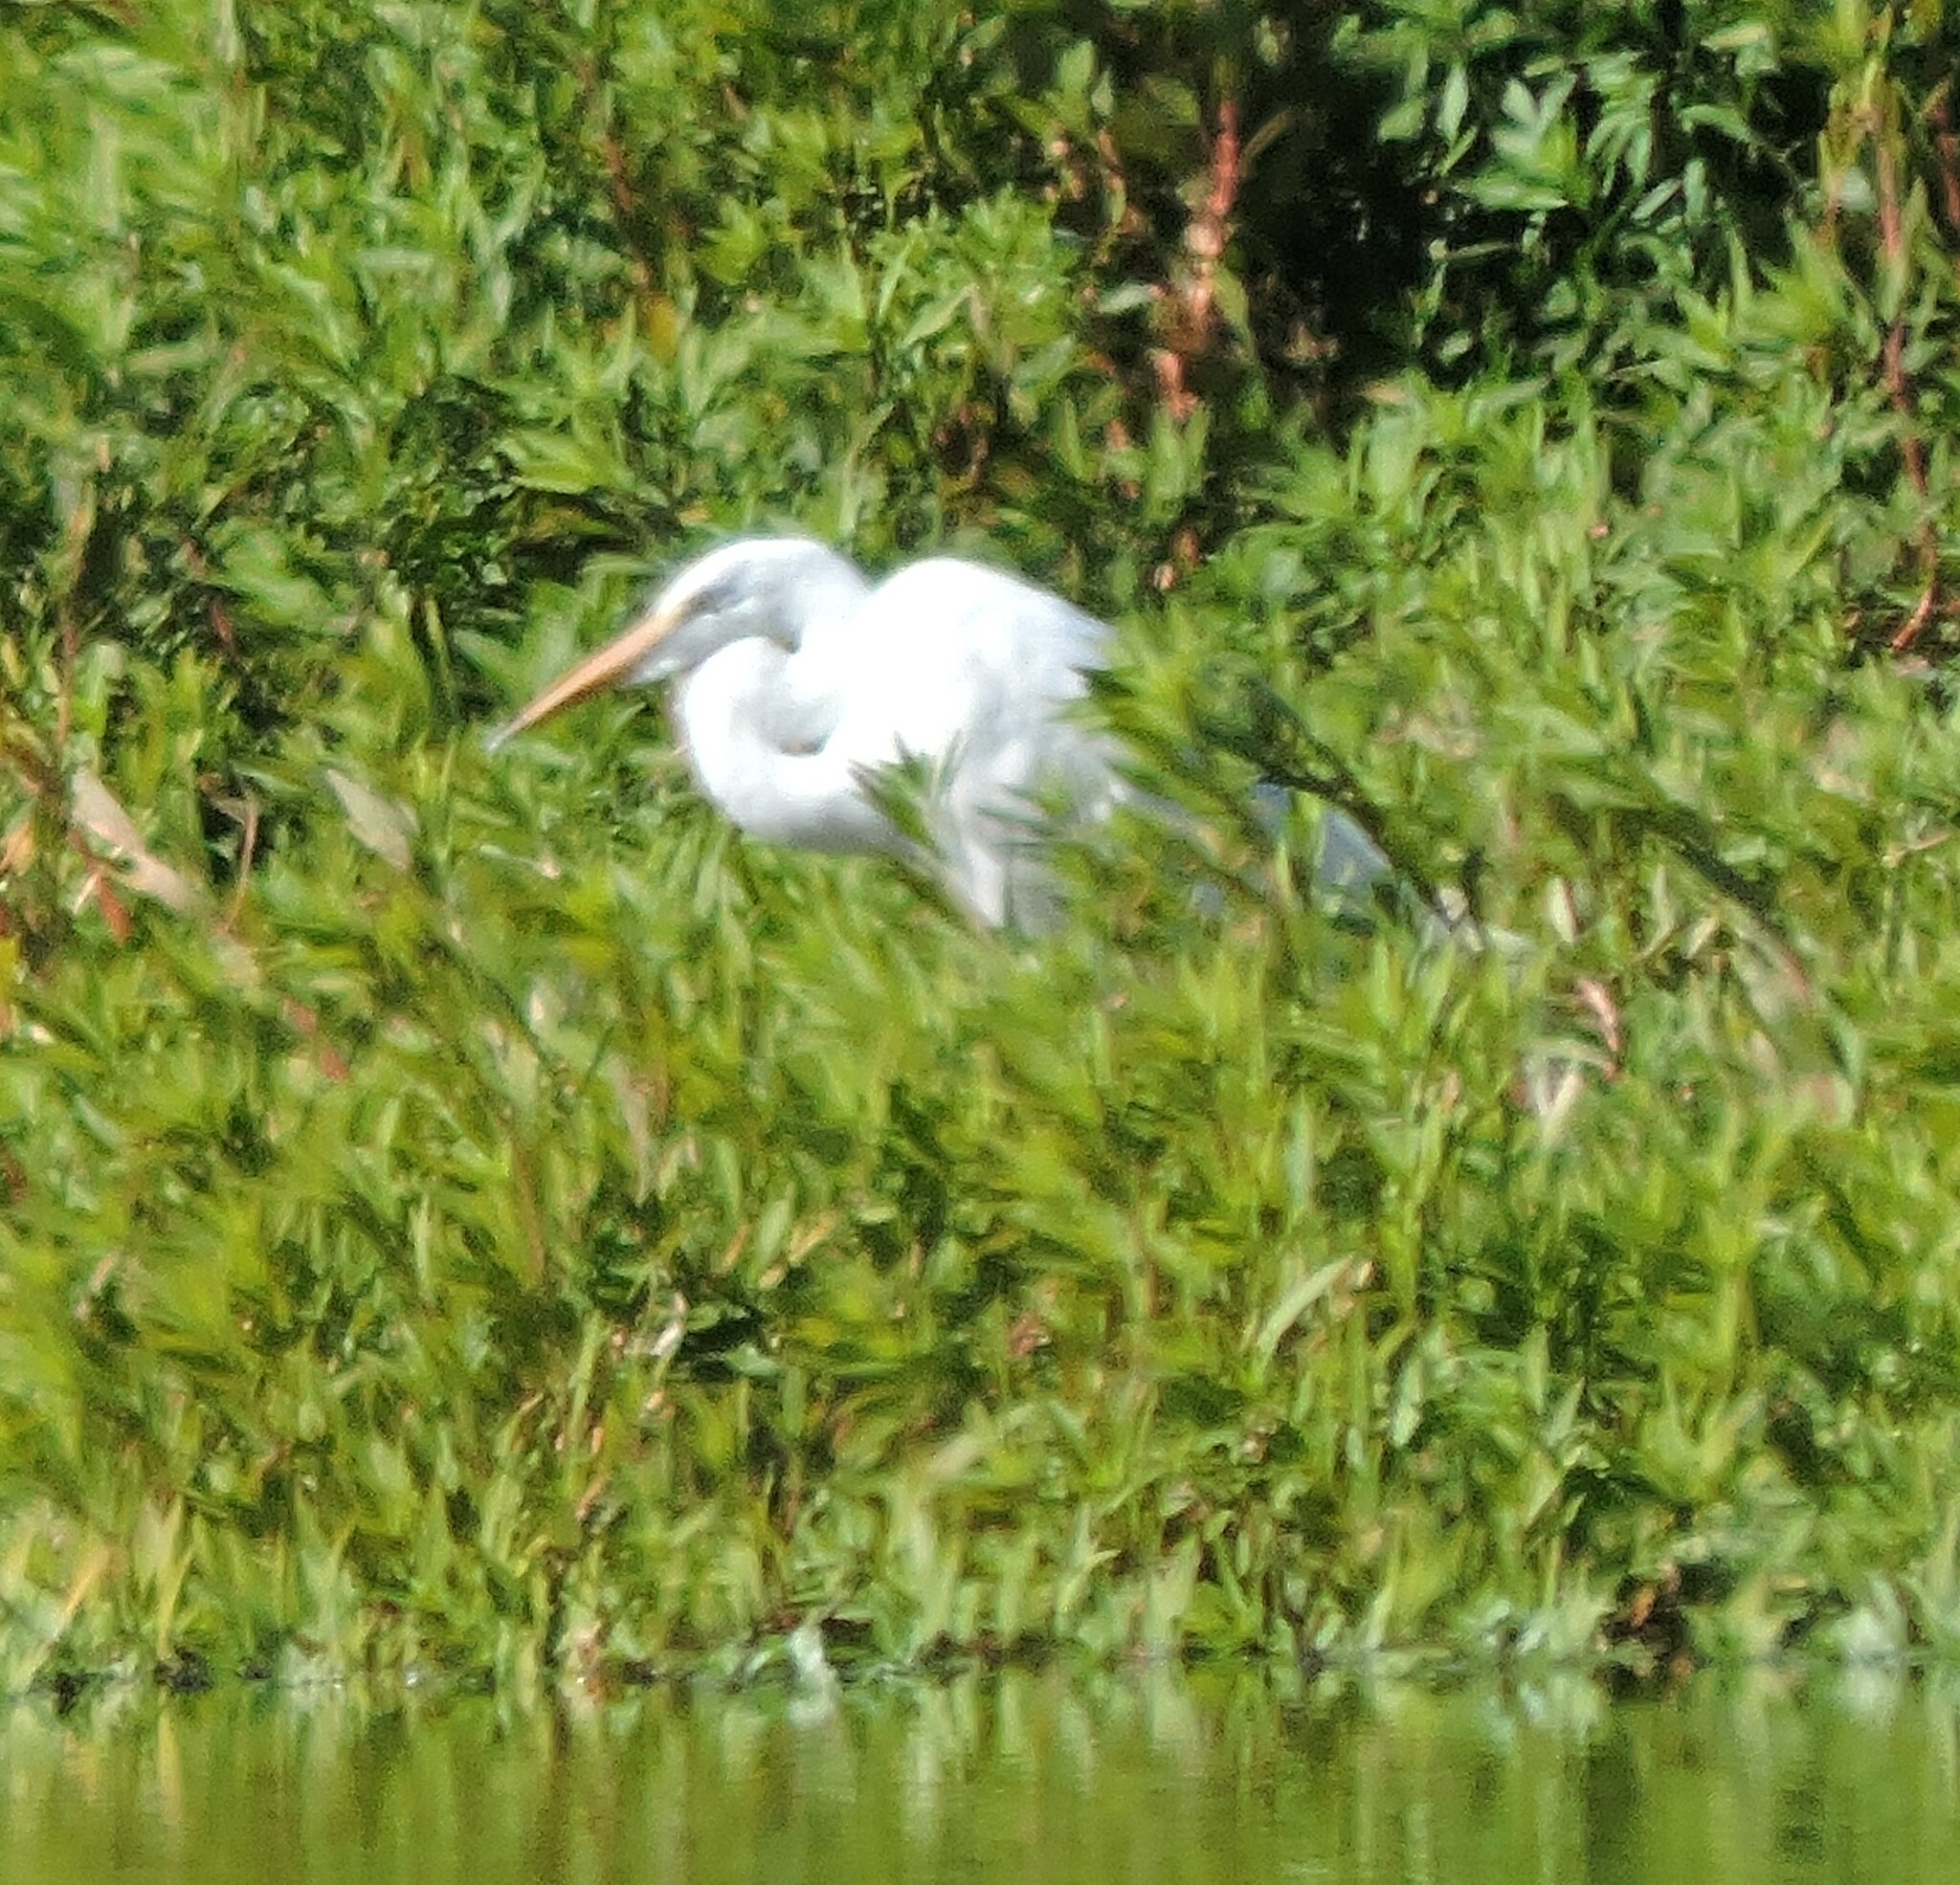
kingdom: Animalia
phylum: Chordata
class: Aves
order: Pelecaniformes
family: Ardeidae
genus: Ardea
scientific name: Ardea alba
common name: Great egret
